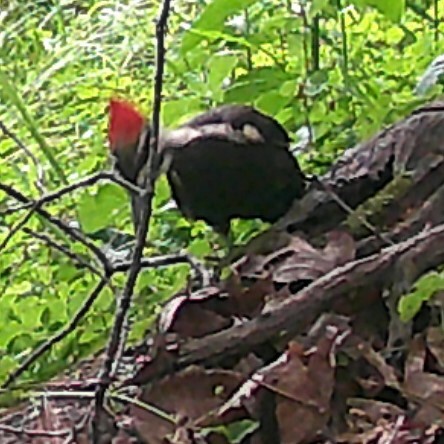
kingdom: Animalia
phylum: Chordata
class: Aves
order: Piciformes
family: Picidae
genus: Dryocopus
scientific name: Dryocopus pileatus
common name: Pileated woodpecker
